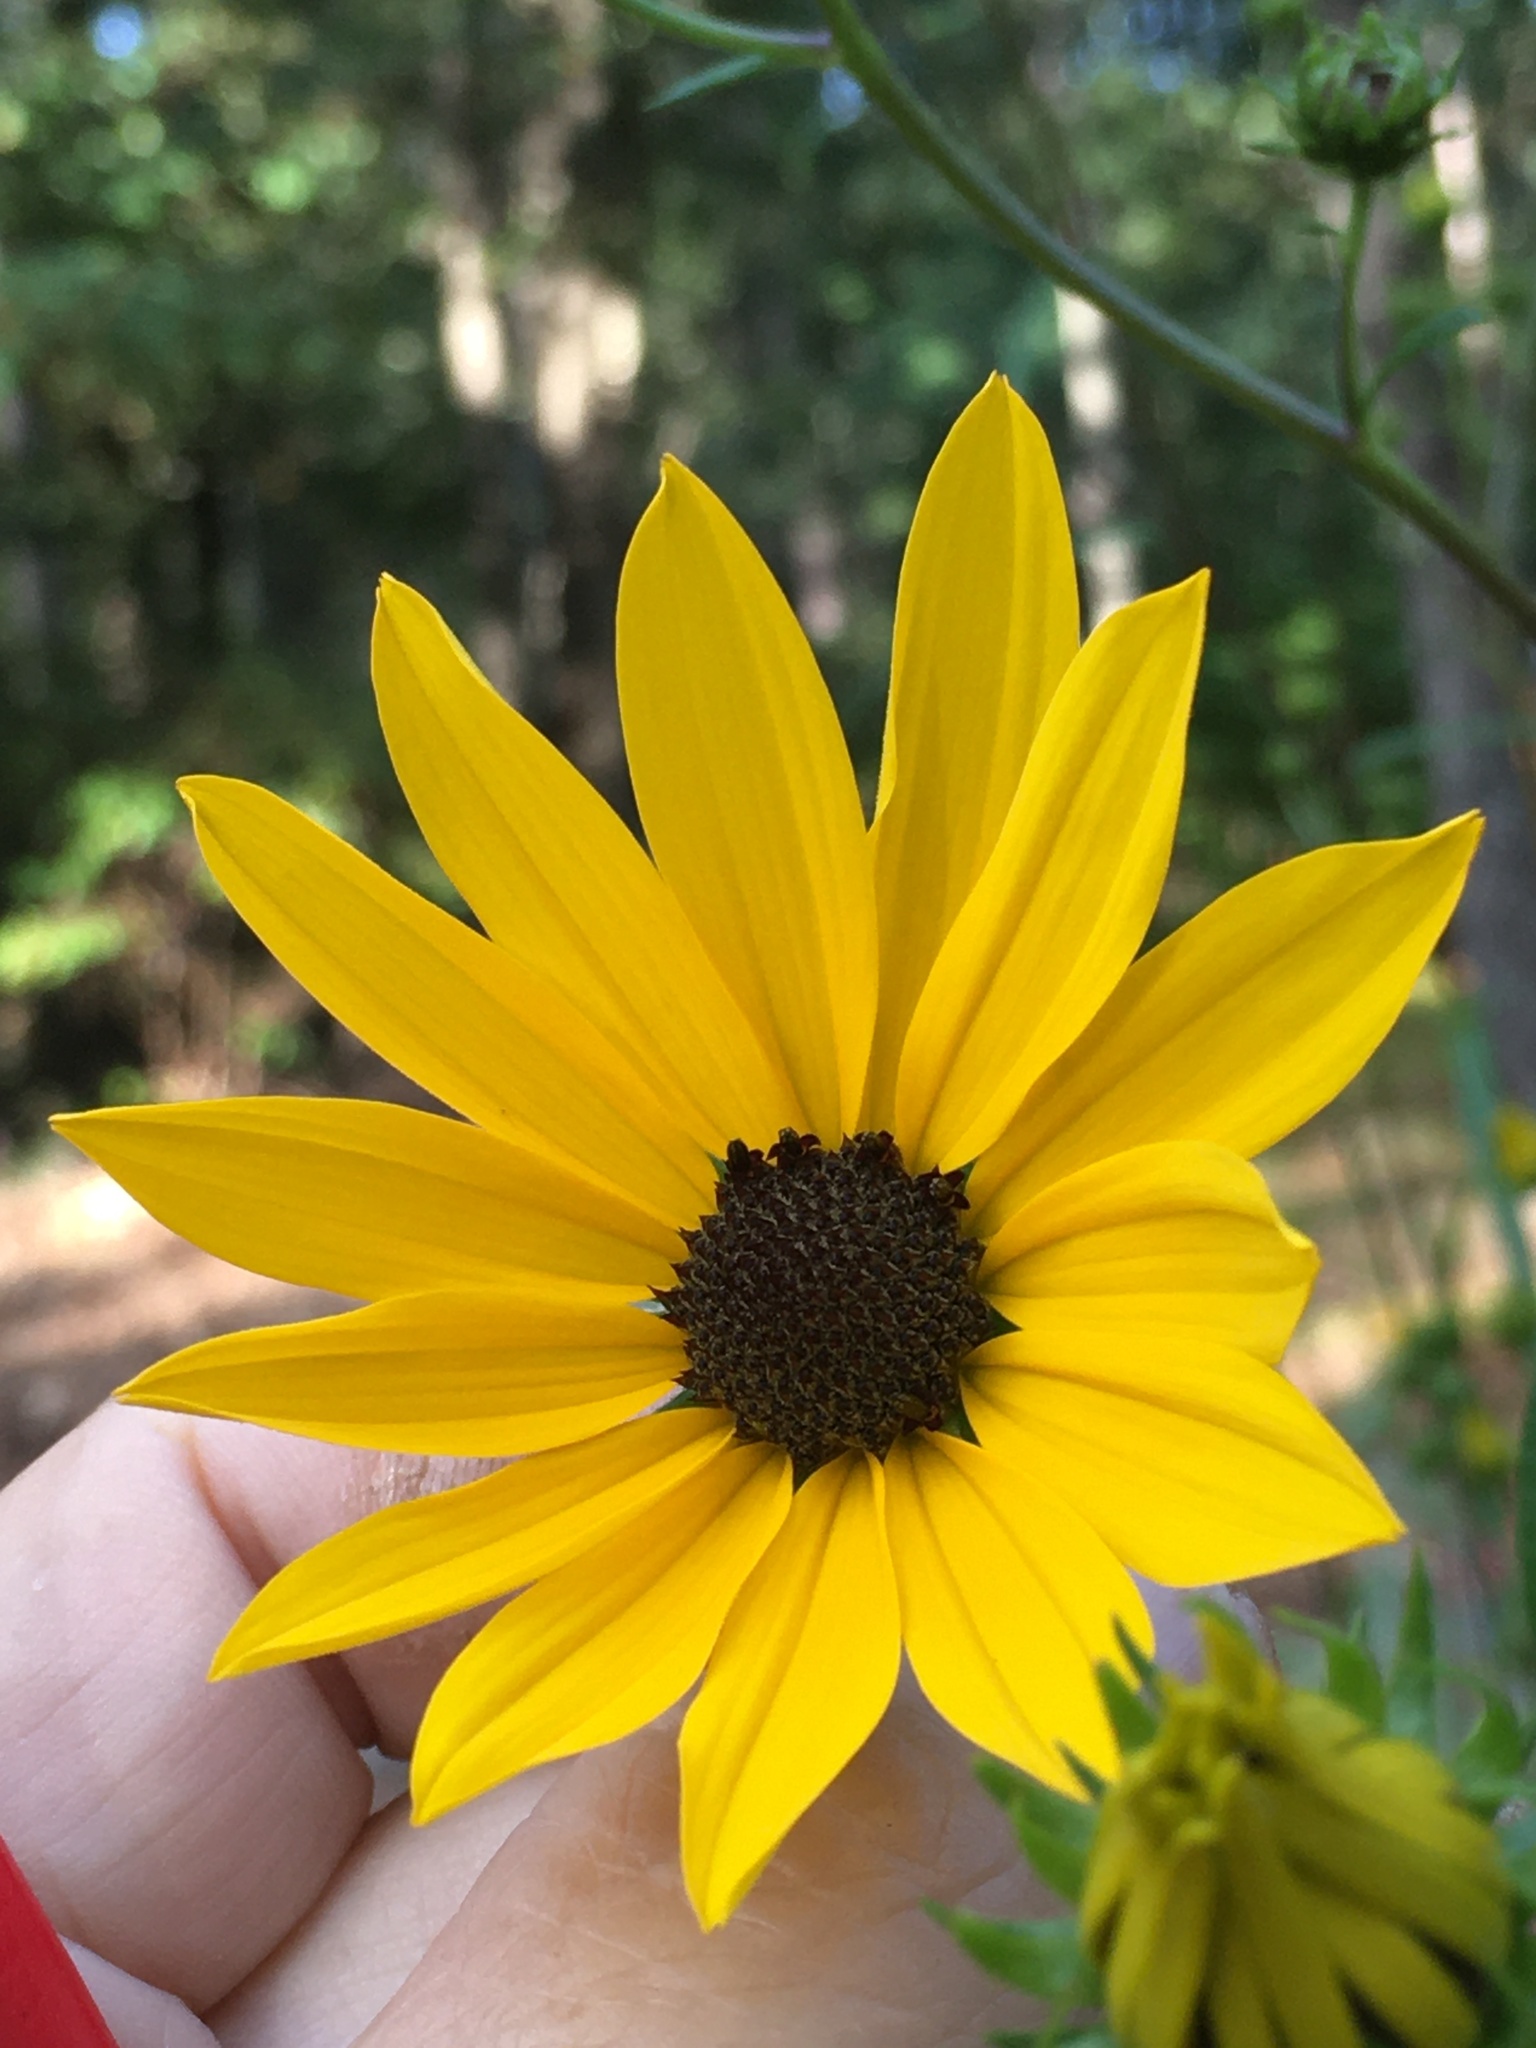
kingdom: Plantae
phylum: Tracheophyta
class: Magnoliopsida
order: Asterales
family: Asteraceae
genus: Helianthus
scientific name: Helianthus simulans
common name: Muck sunflower
